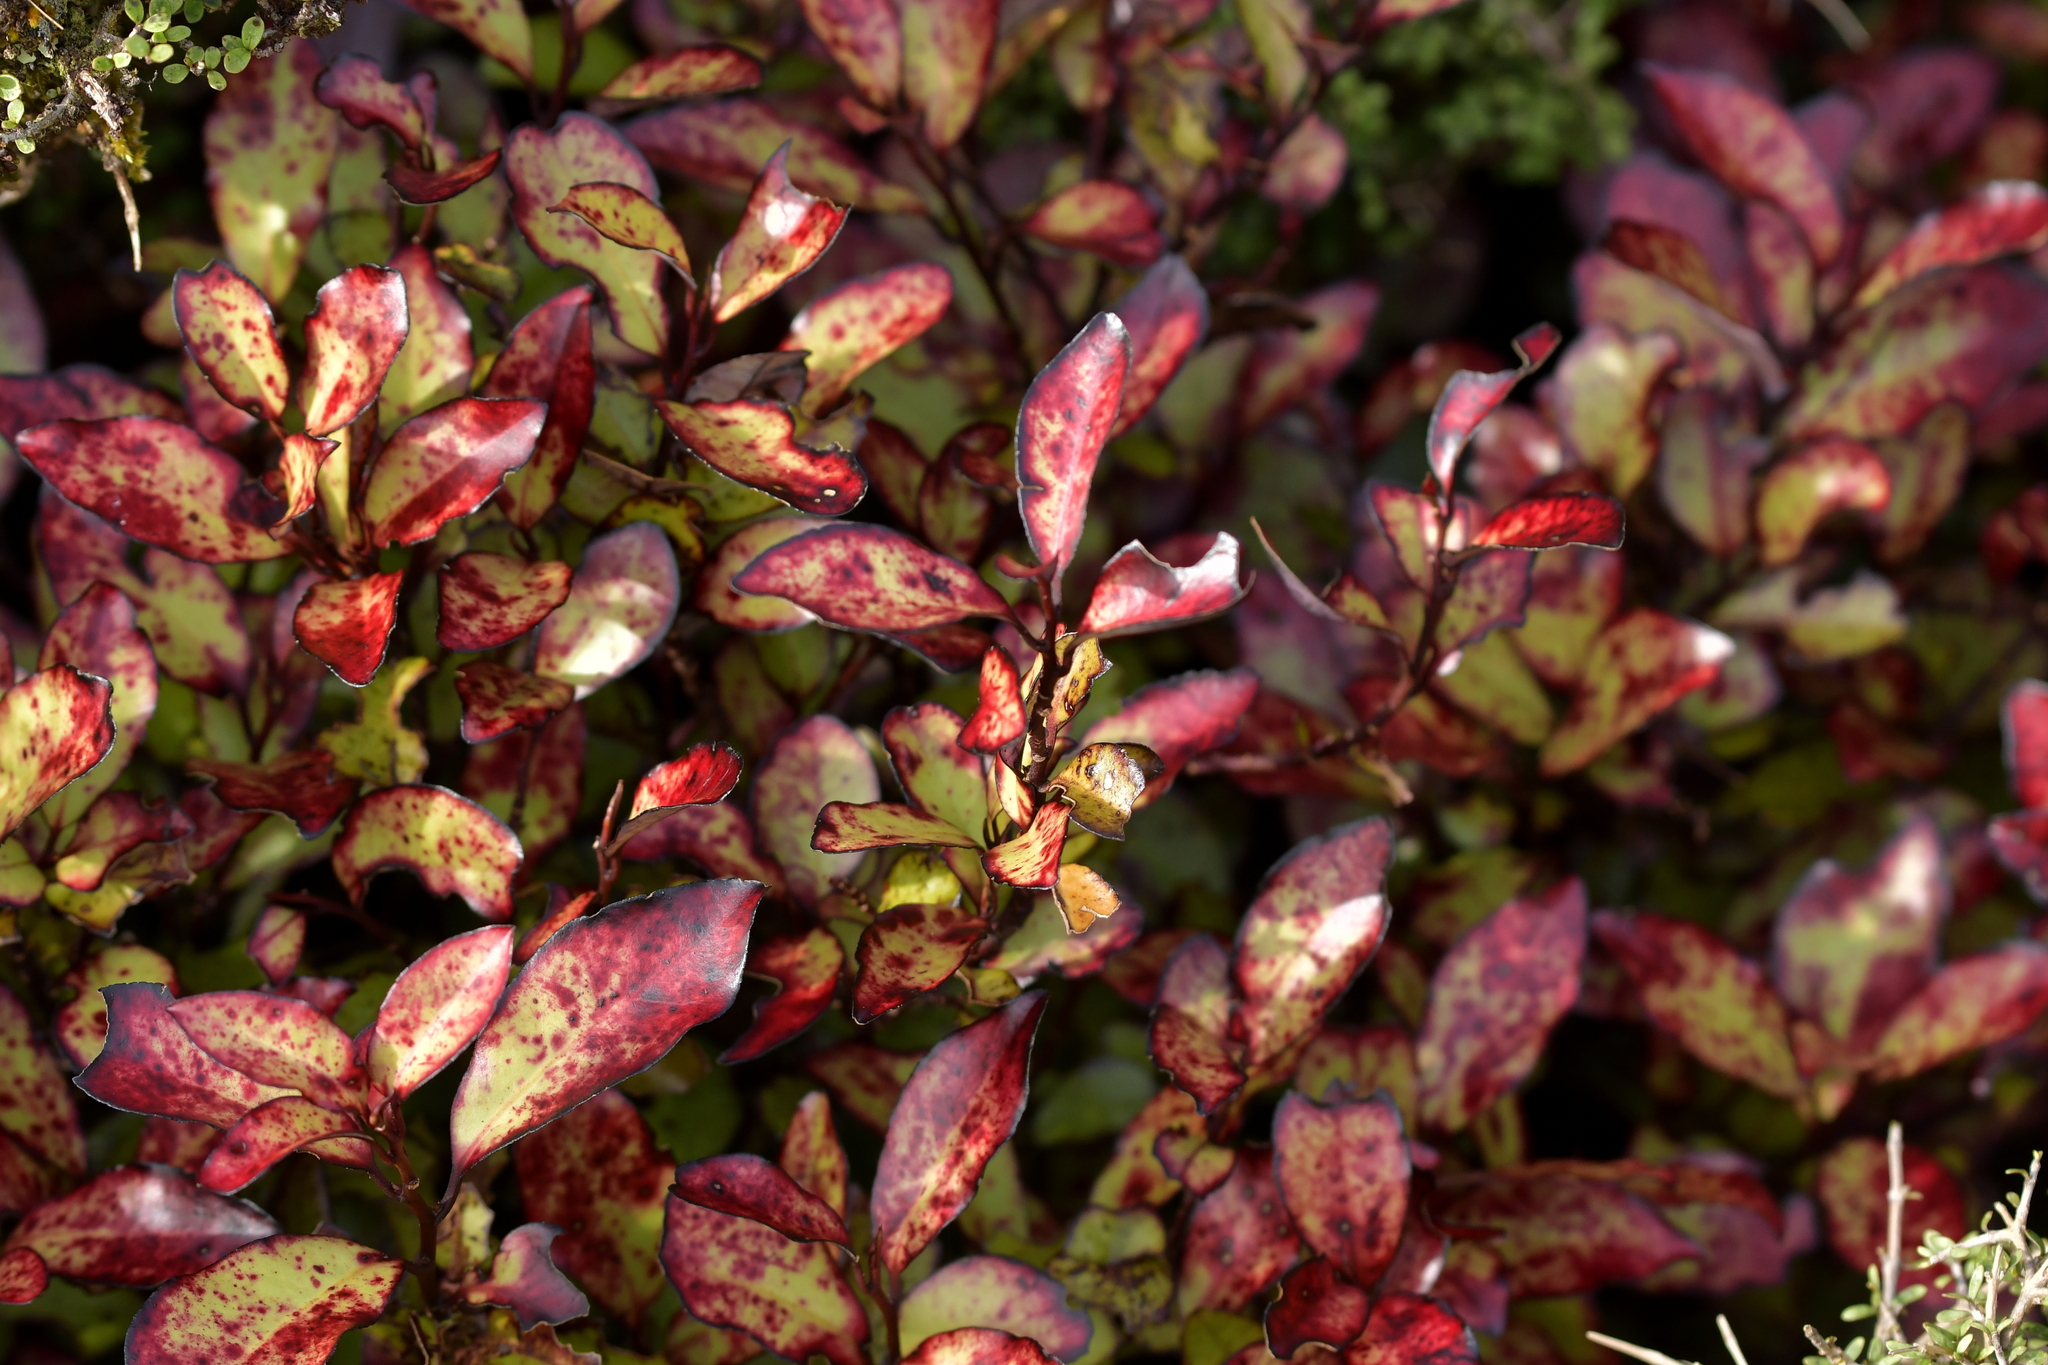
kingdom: Plantae
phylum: Tracheophyta
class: Magnoliopsida
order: Canellales
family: Winteraceae
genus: Pseudowintera
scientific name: Pseudowintera colorata
